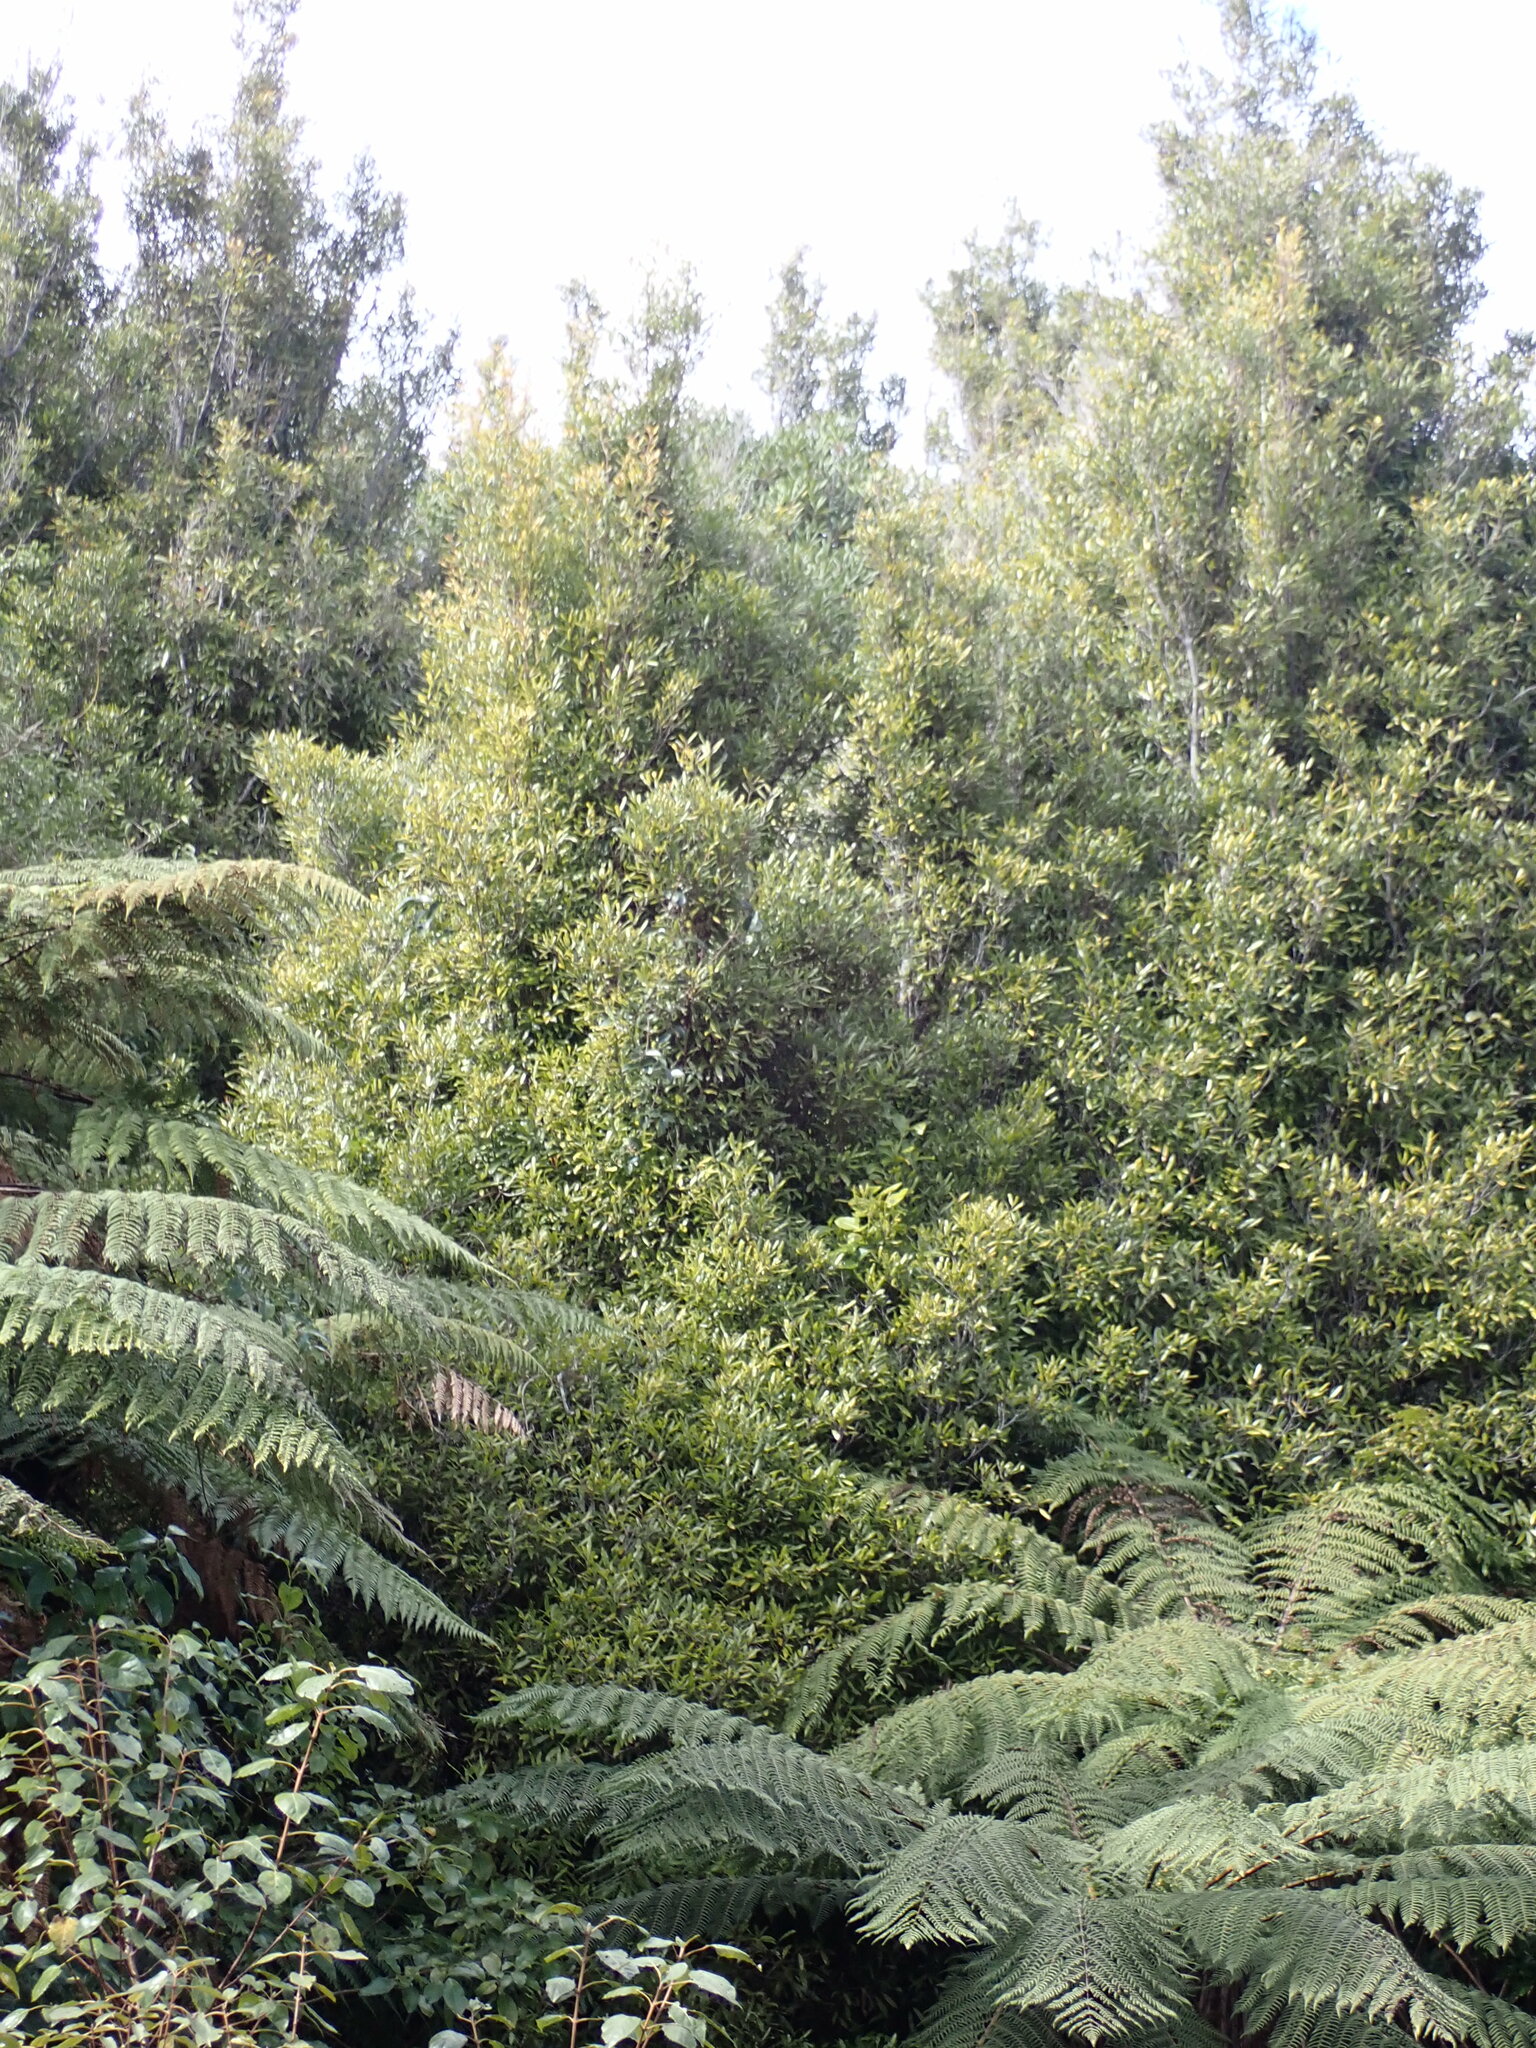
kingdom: Plantae
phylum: Tracheophyta
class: Magnoliopsida
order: Laurales
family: Lauraceae
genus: Beilschmiedia
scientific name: Beilschmiedia tawa
